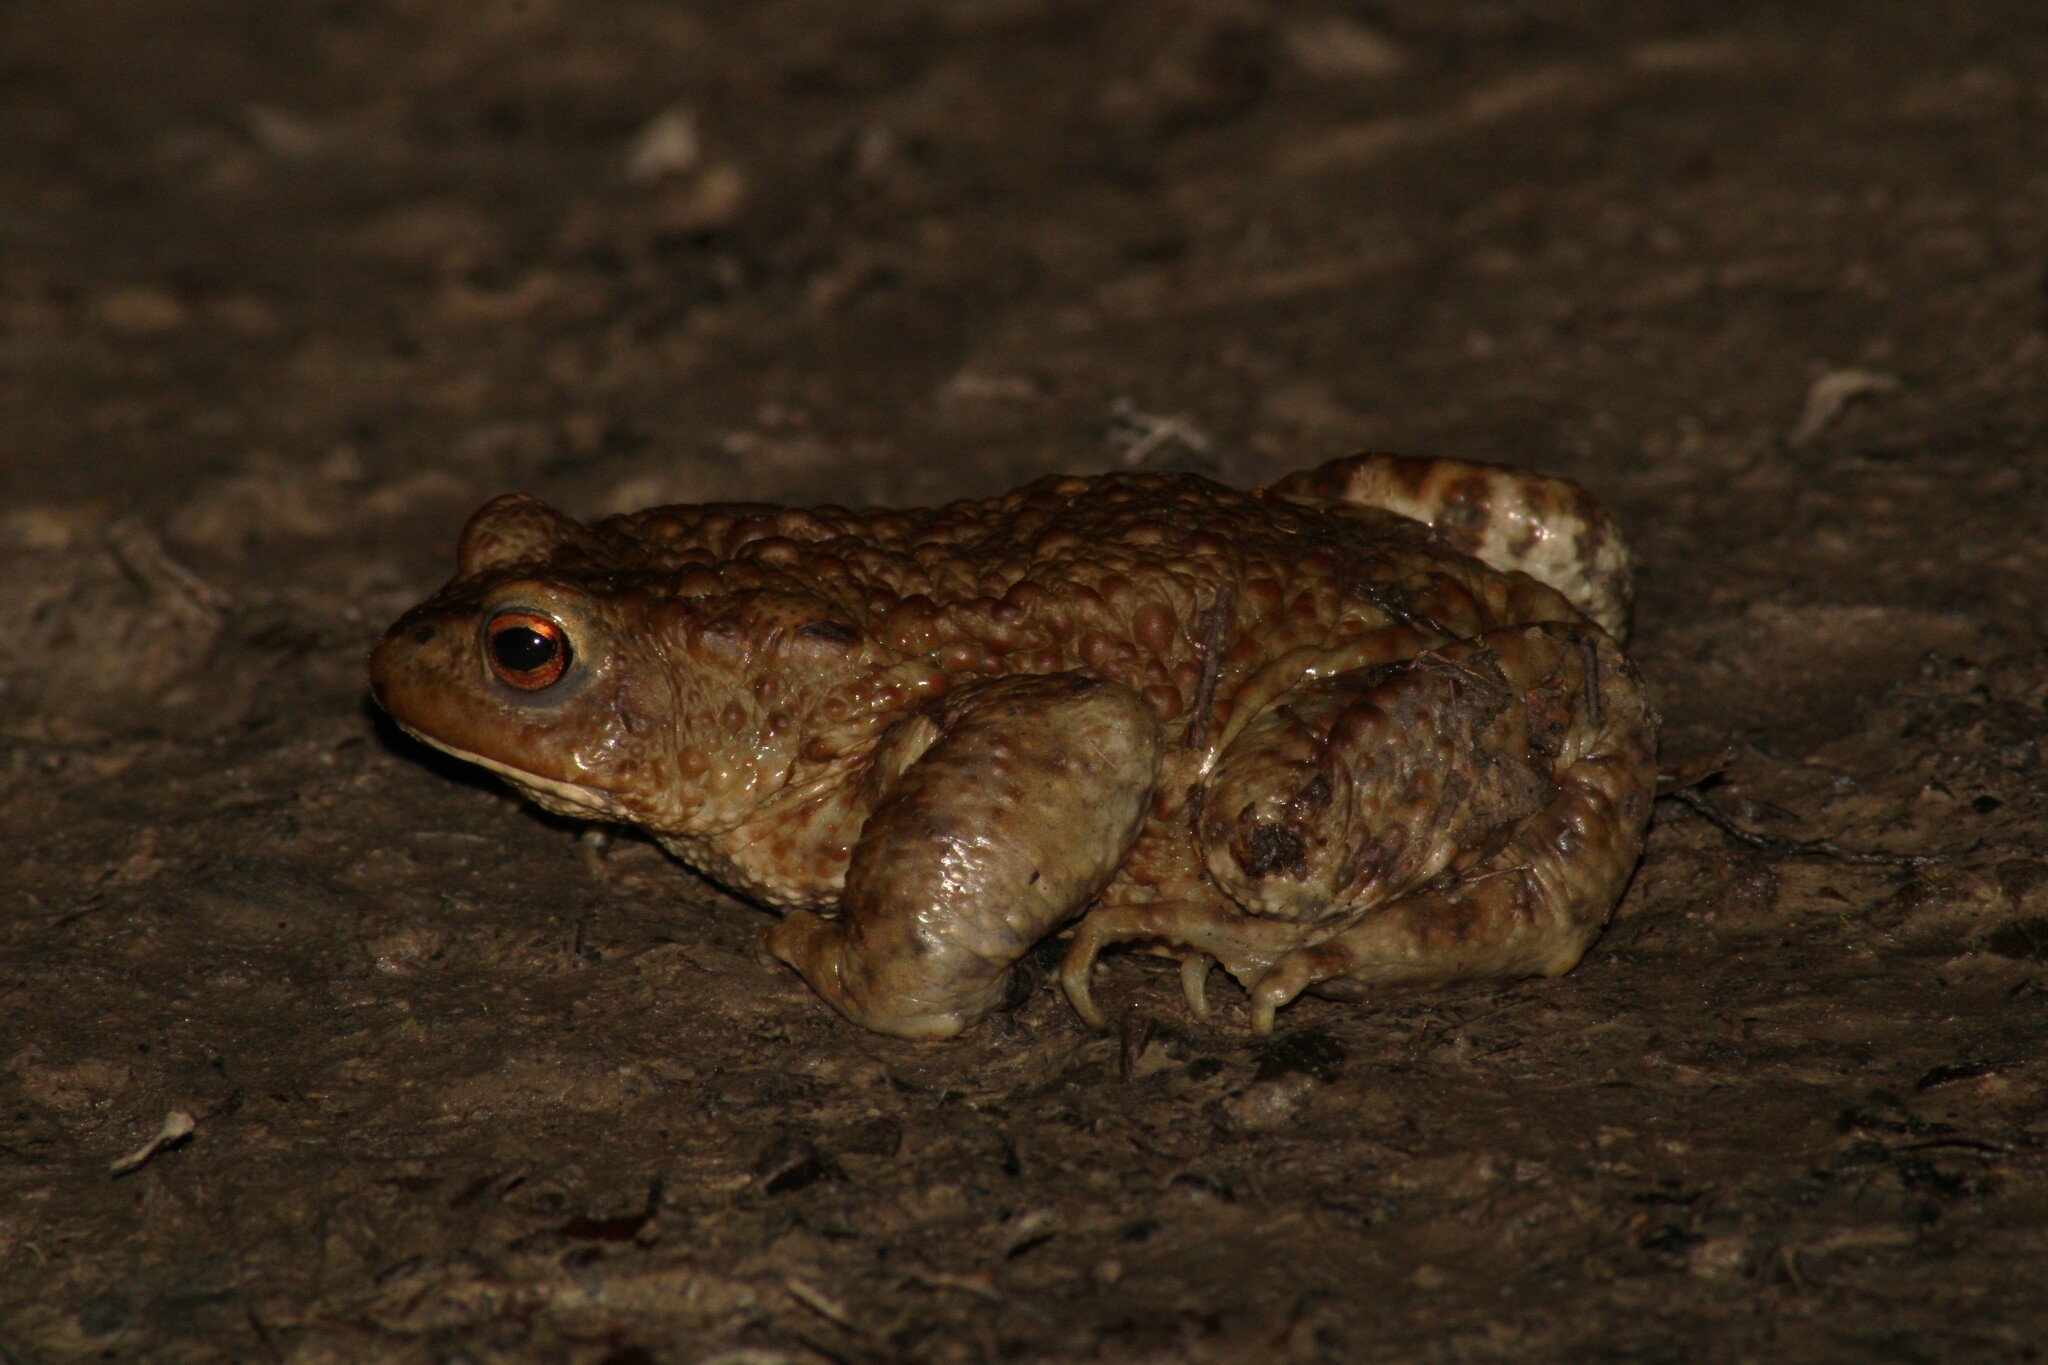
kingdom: Animalia
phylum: Chordata
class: Amphibia
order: Anura
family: Bufonidae
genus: Bufo
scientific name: Bufo bufo
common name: Common toad
